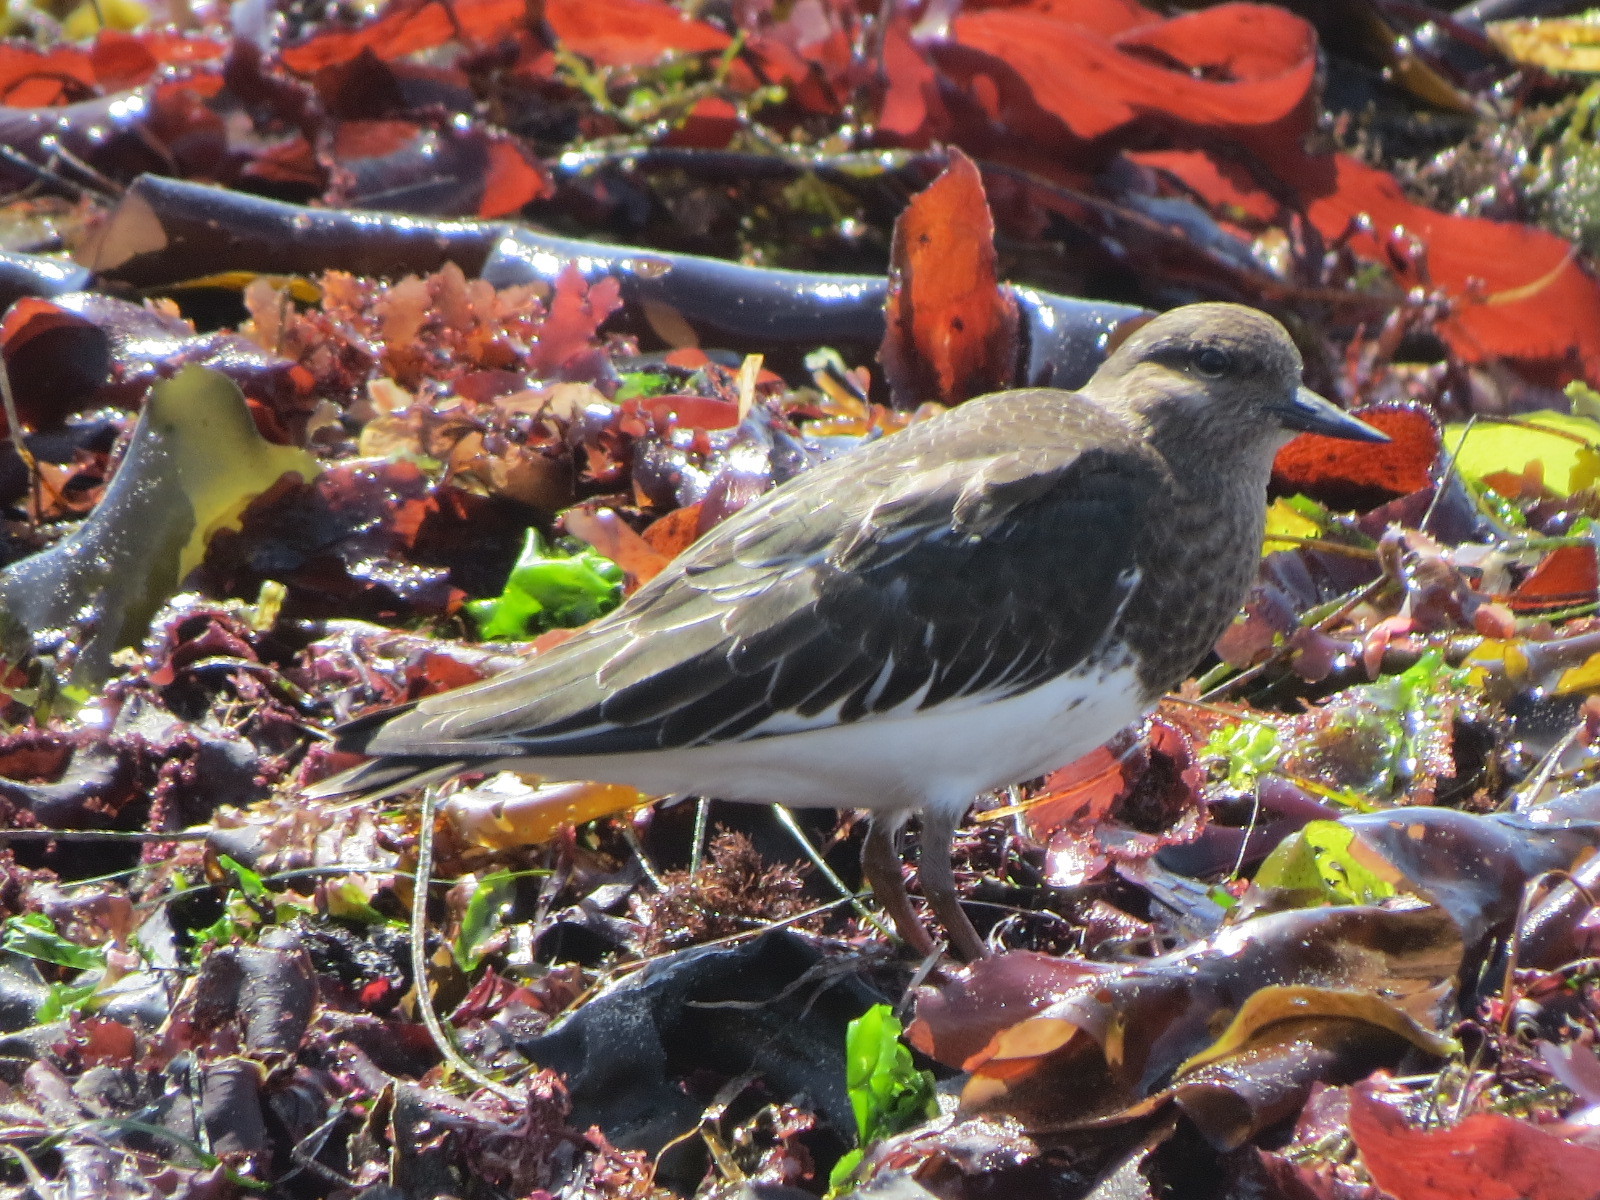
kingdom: Animalia
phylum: Chordata
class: Aves
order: Charadriiformes
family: Scolopacidae
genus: Arenaria
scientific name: Arenaria melanocephala
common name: Black turnstone
